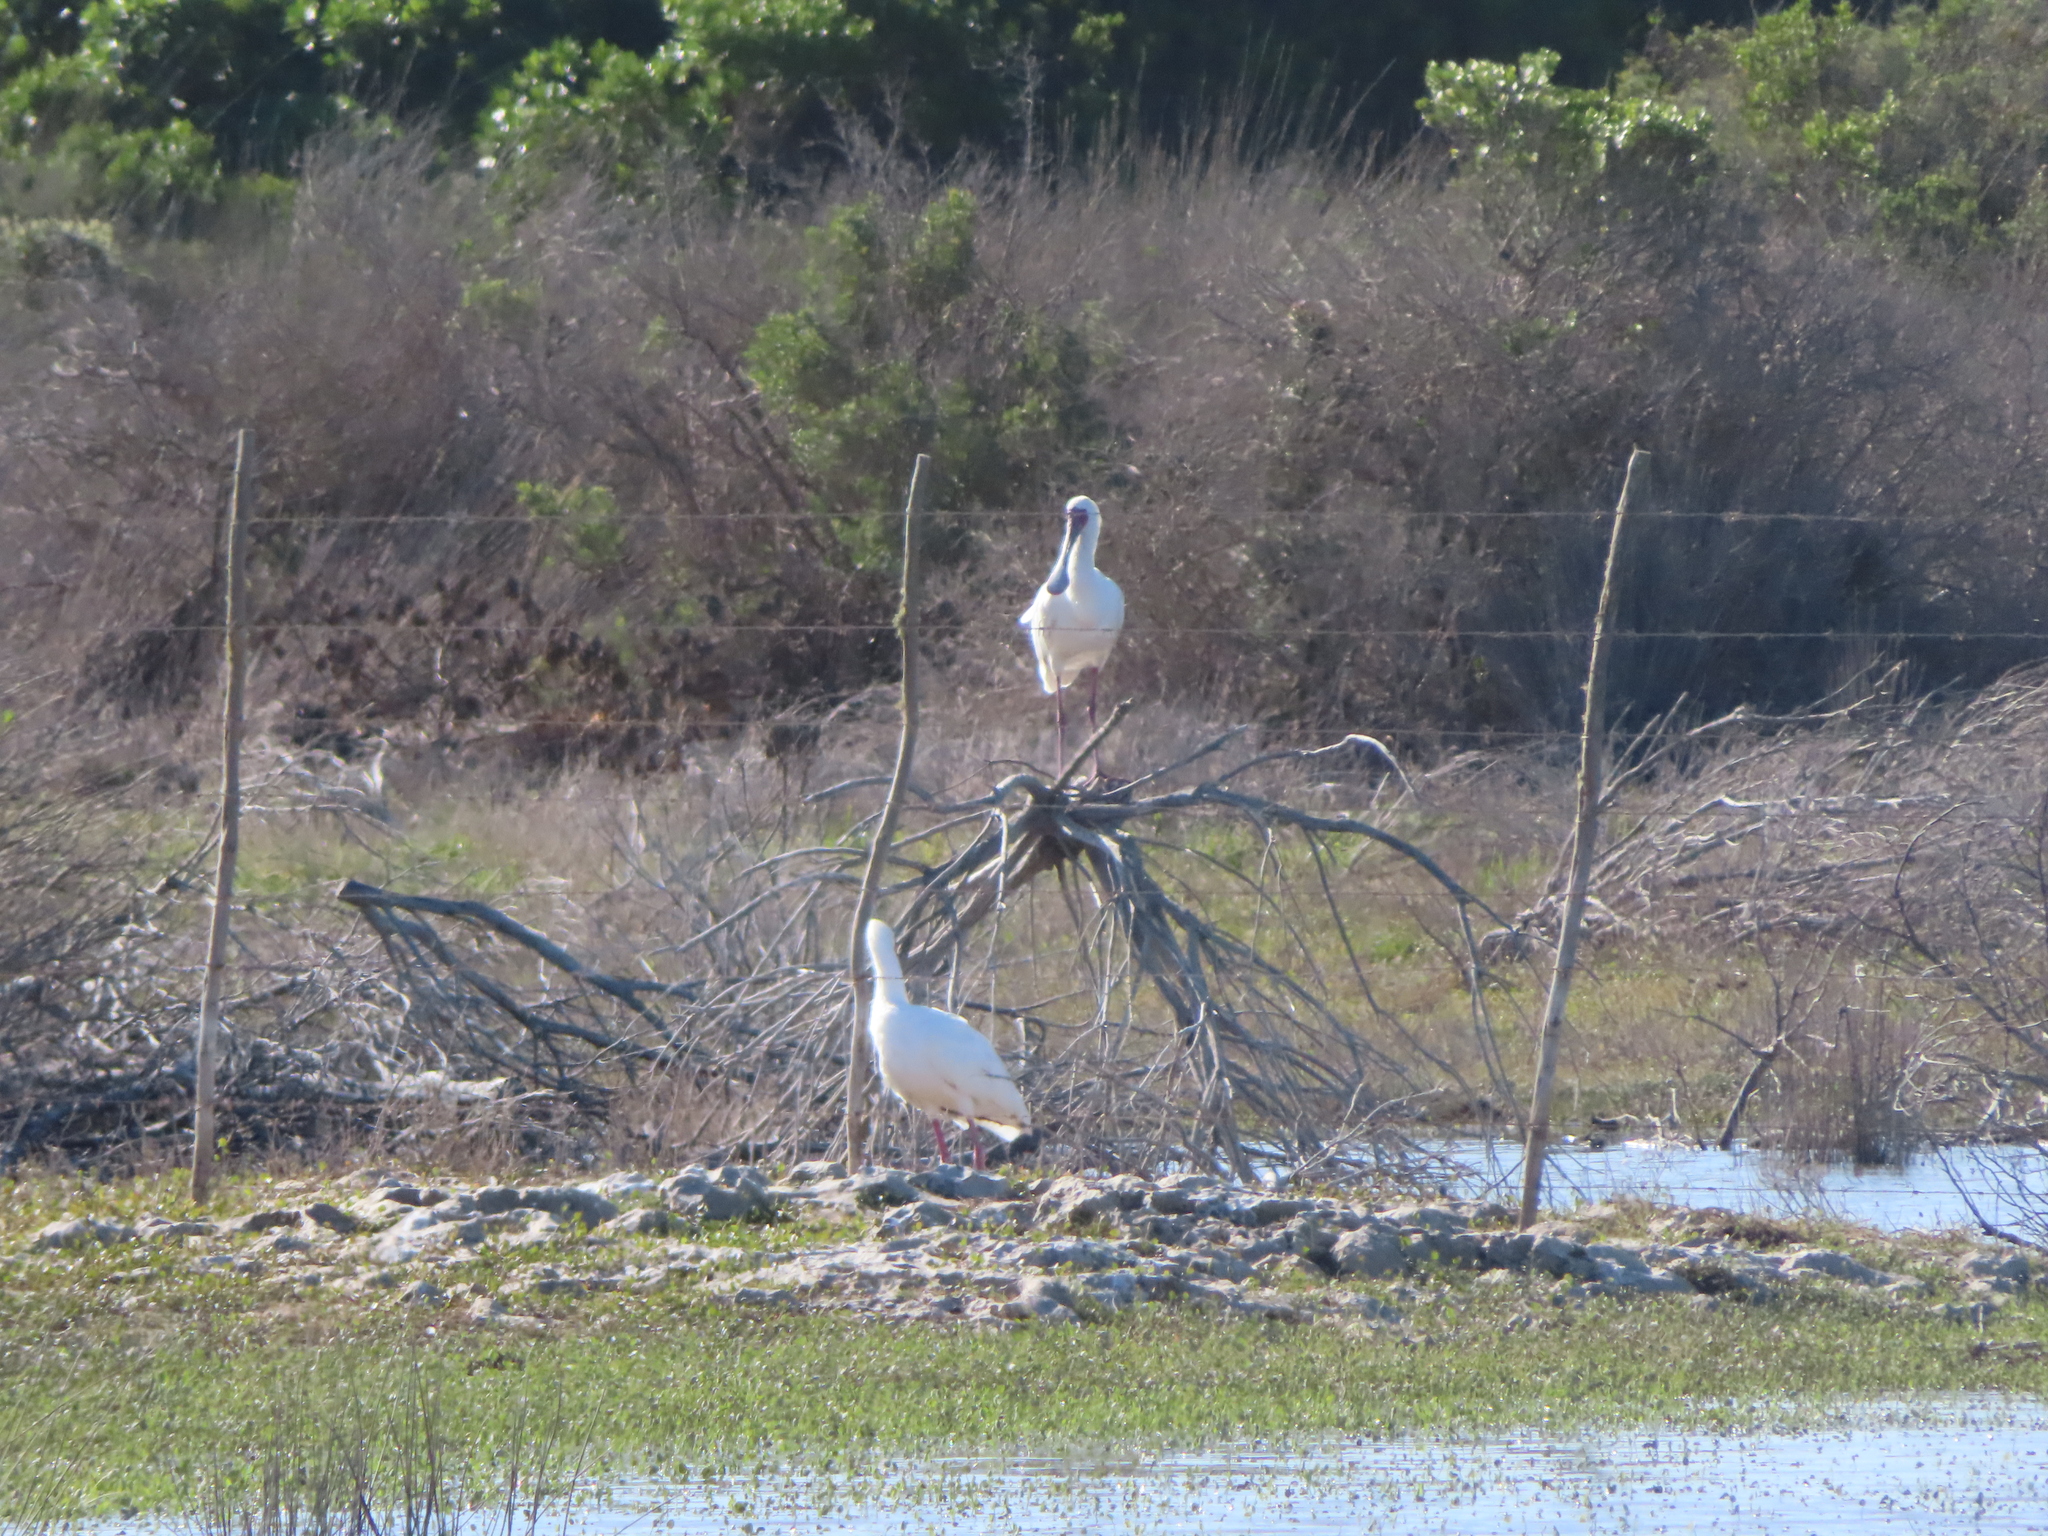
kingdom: Animalia
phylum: Chordata
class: Aves
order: Pelecaniformes
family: Threskiornithidae
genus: Platalea
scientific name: Platalea alba
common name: African spoonbill
